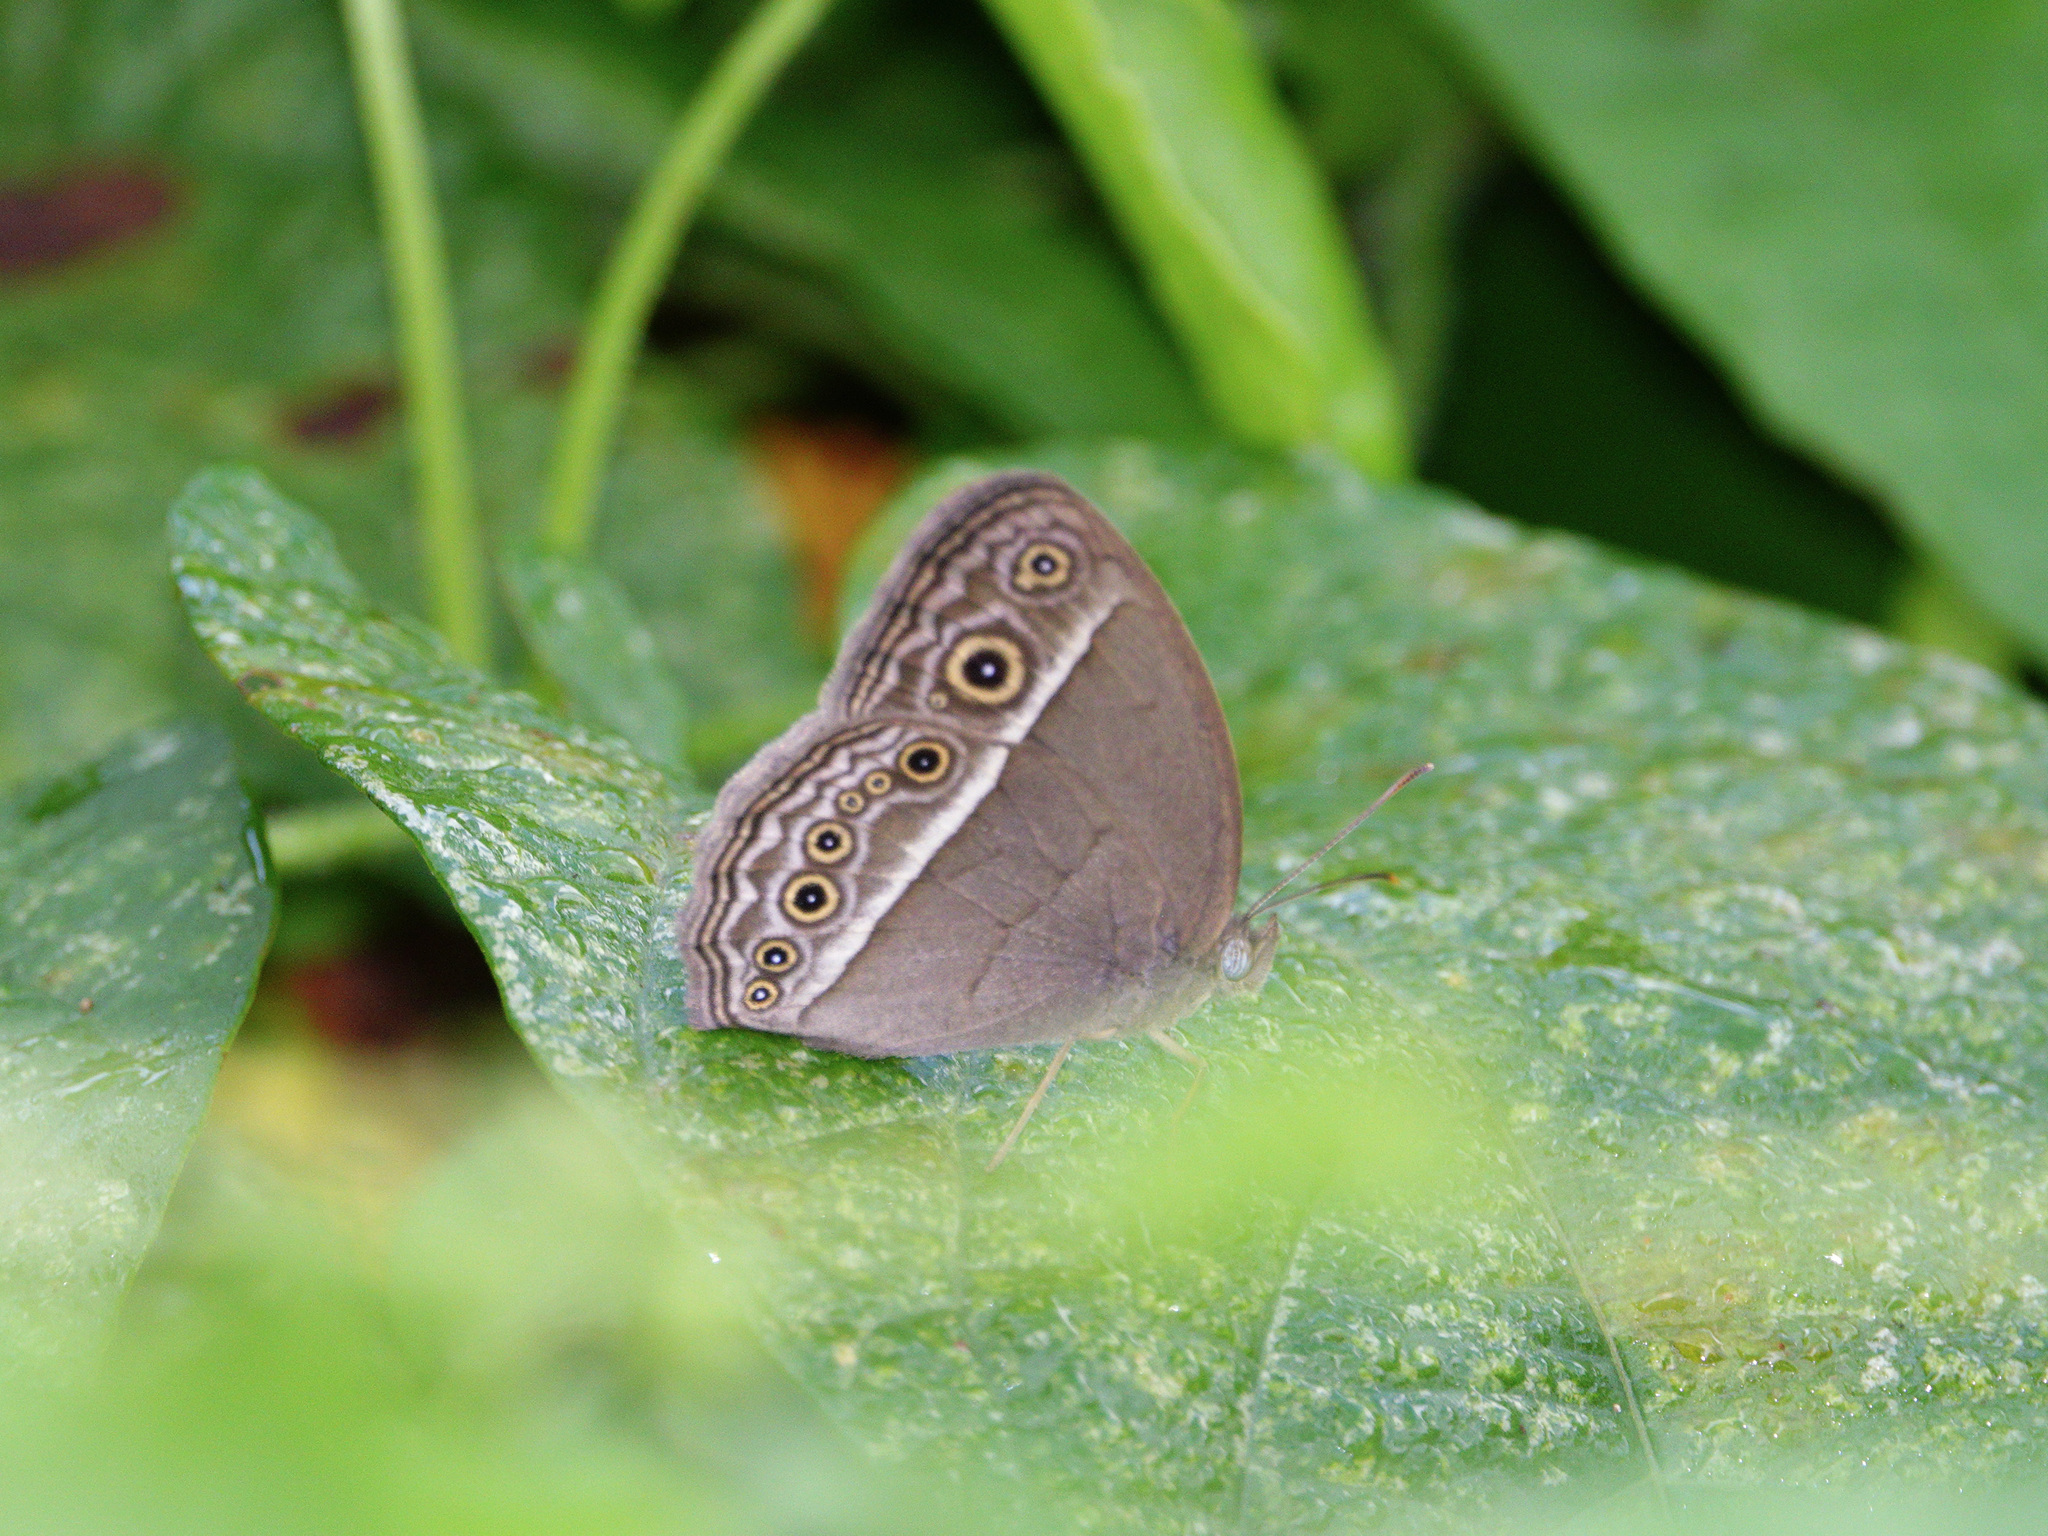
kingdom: Animalia
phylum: Arthropoda
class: Insecta
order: Lepidoptera
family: Nymphalidae
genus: Mycalesis
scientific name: Mycalesis visala
